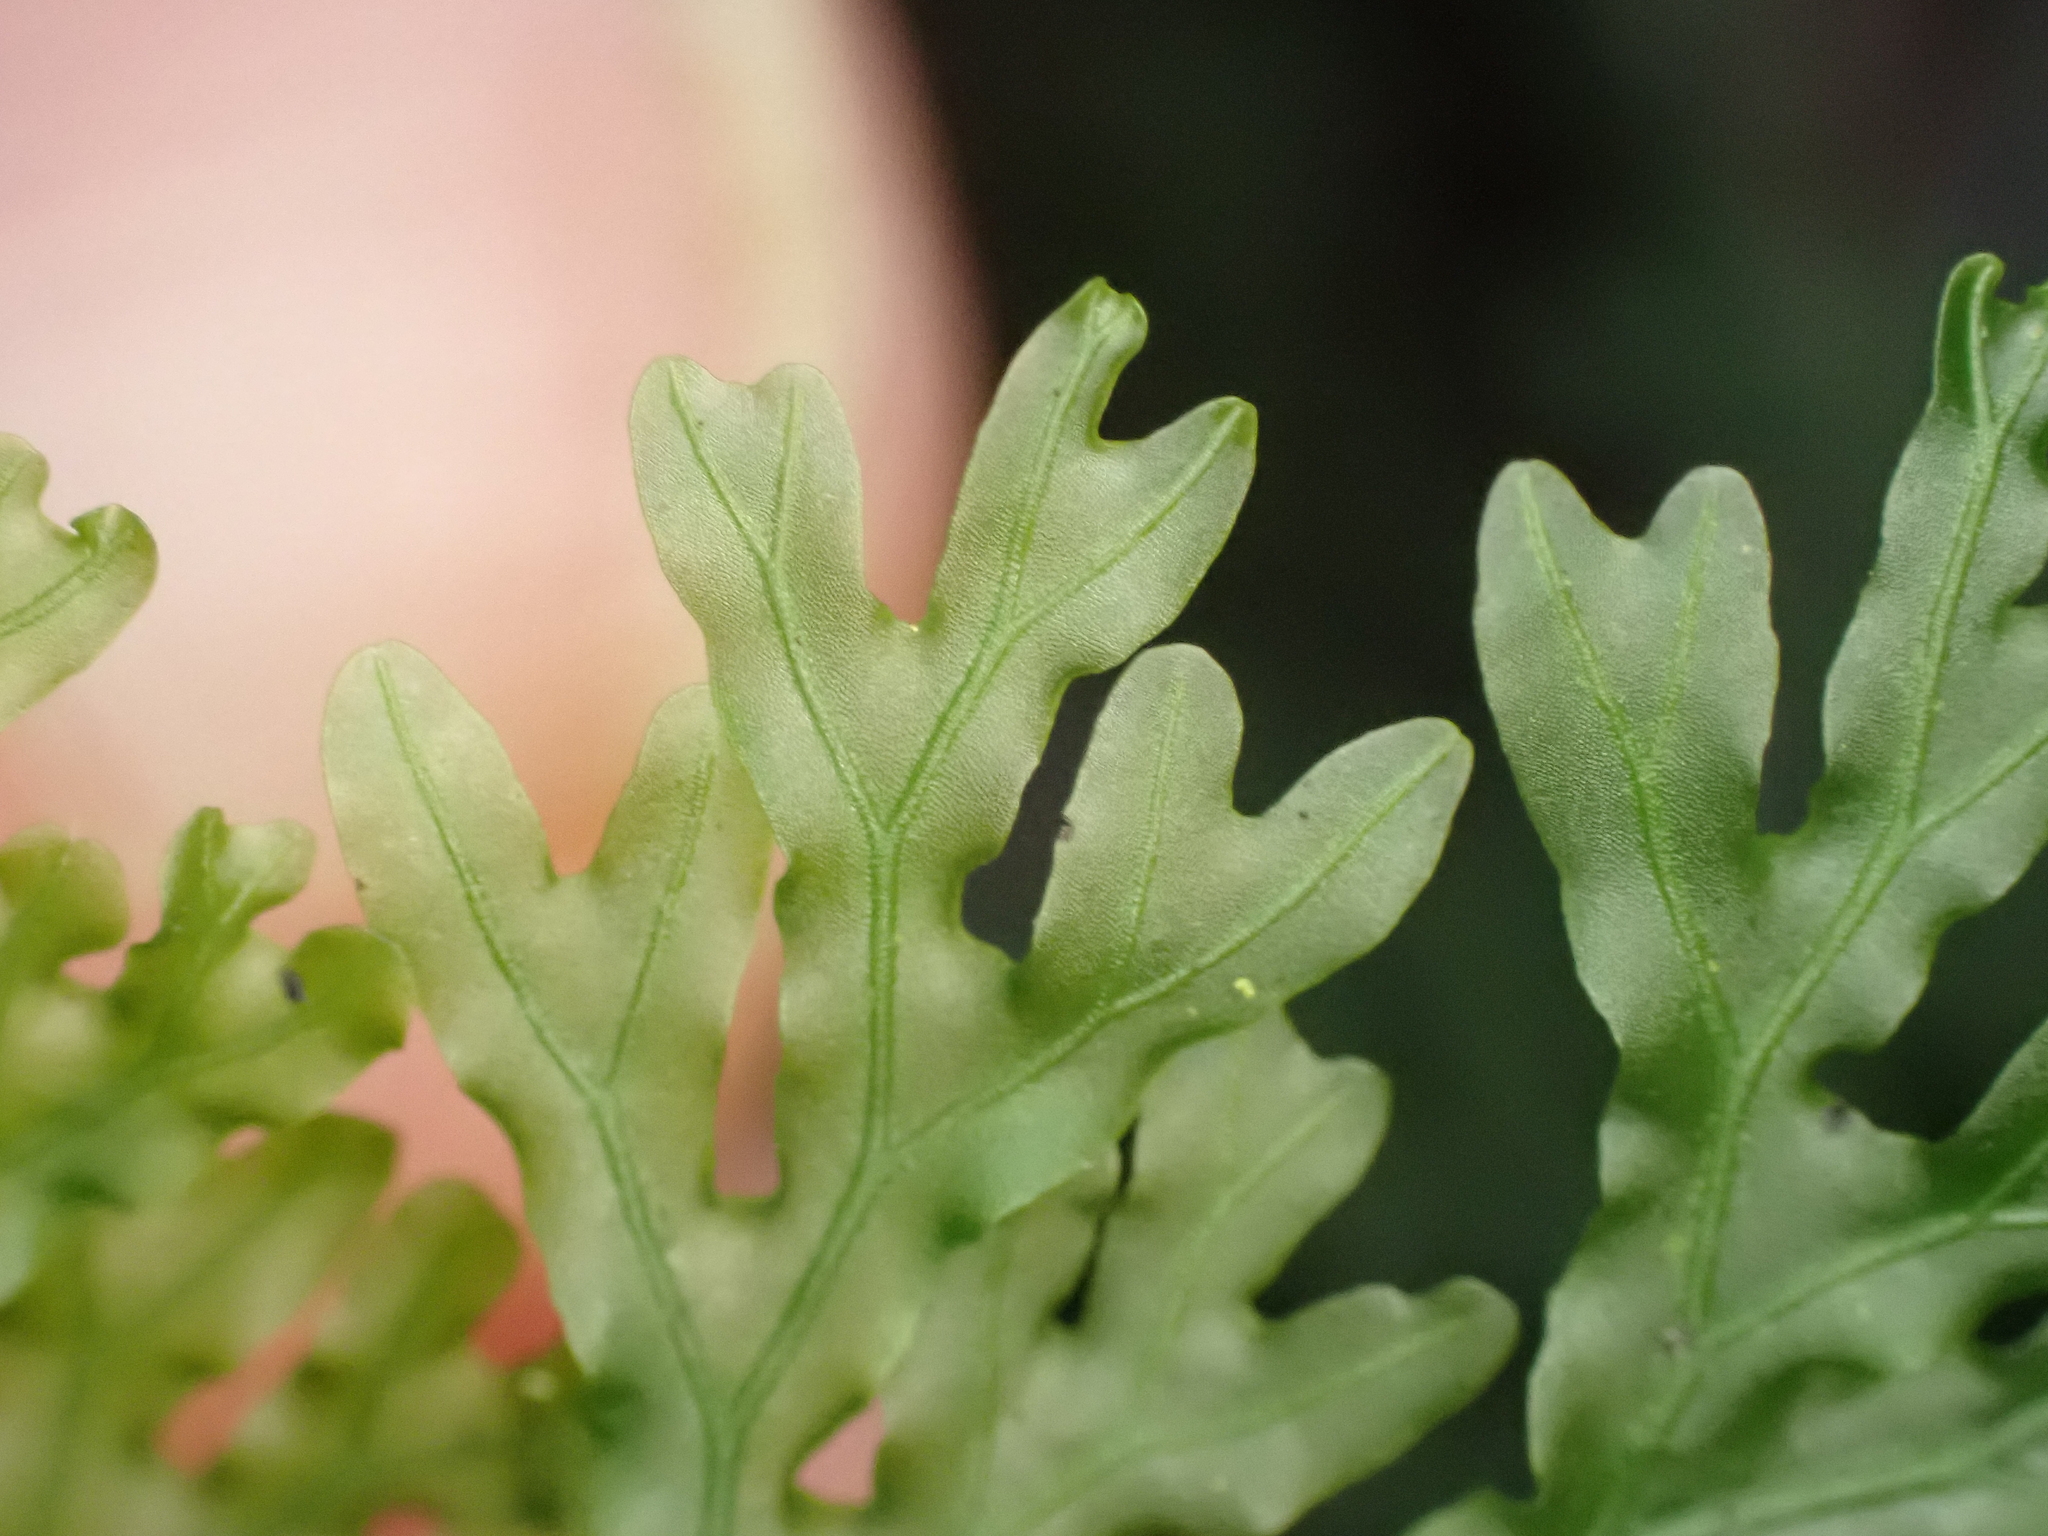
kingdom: Plantae
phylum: Tracheophyta
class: Polypodiopsida
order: Hymenophyllales
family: Hymenophyllaceae
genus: Hymenophyllum
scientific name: Hymenophyllum flexuosum
